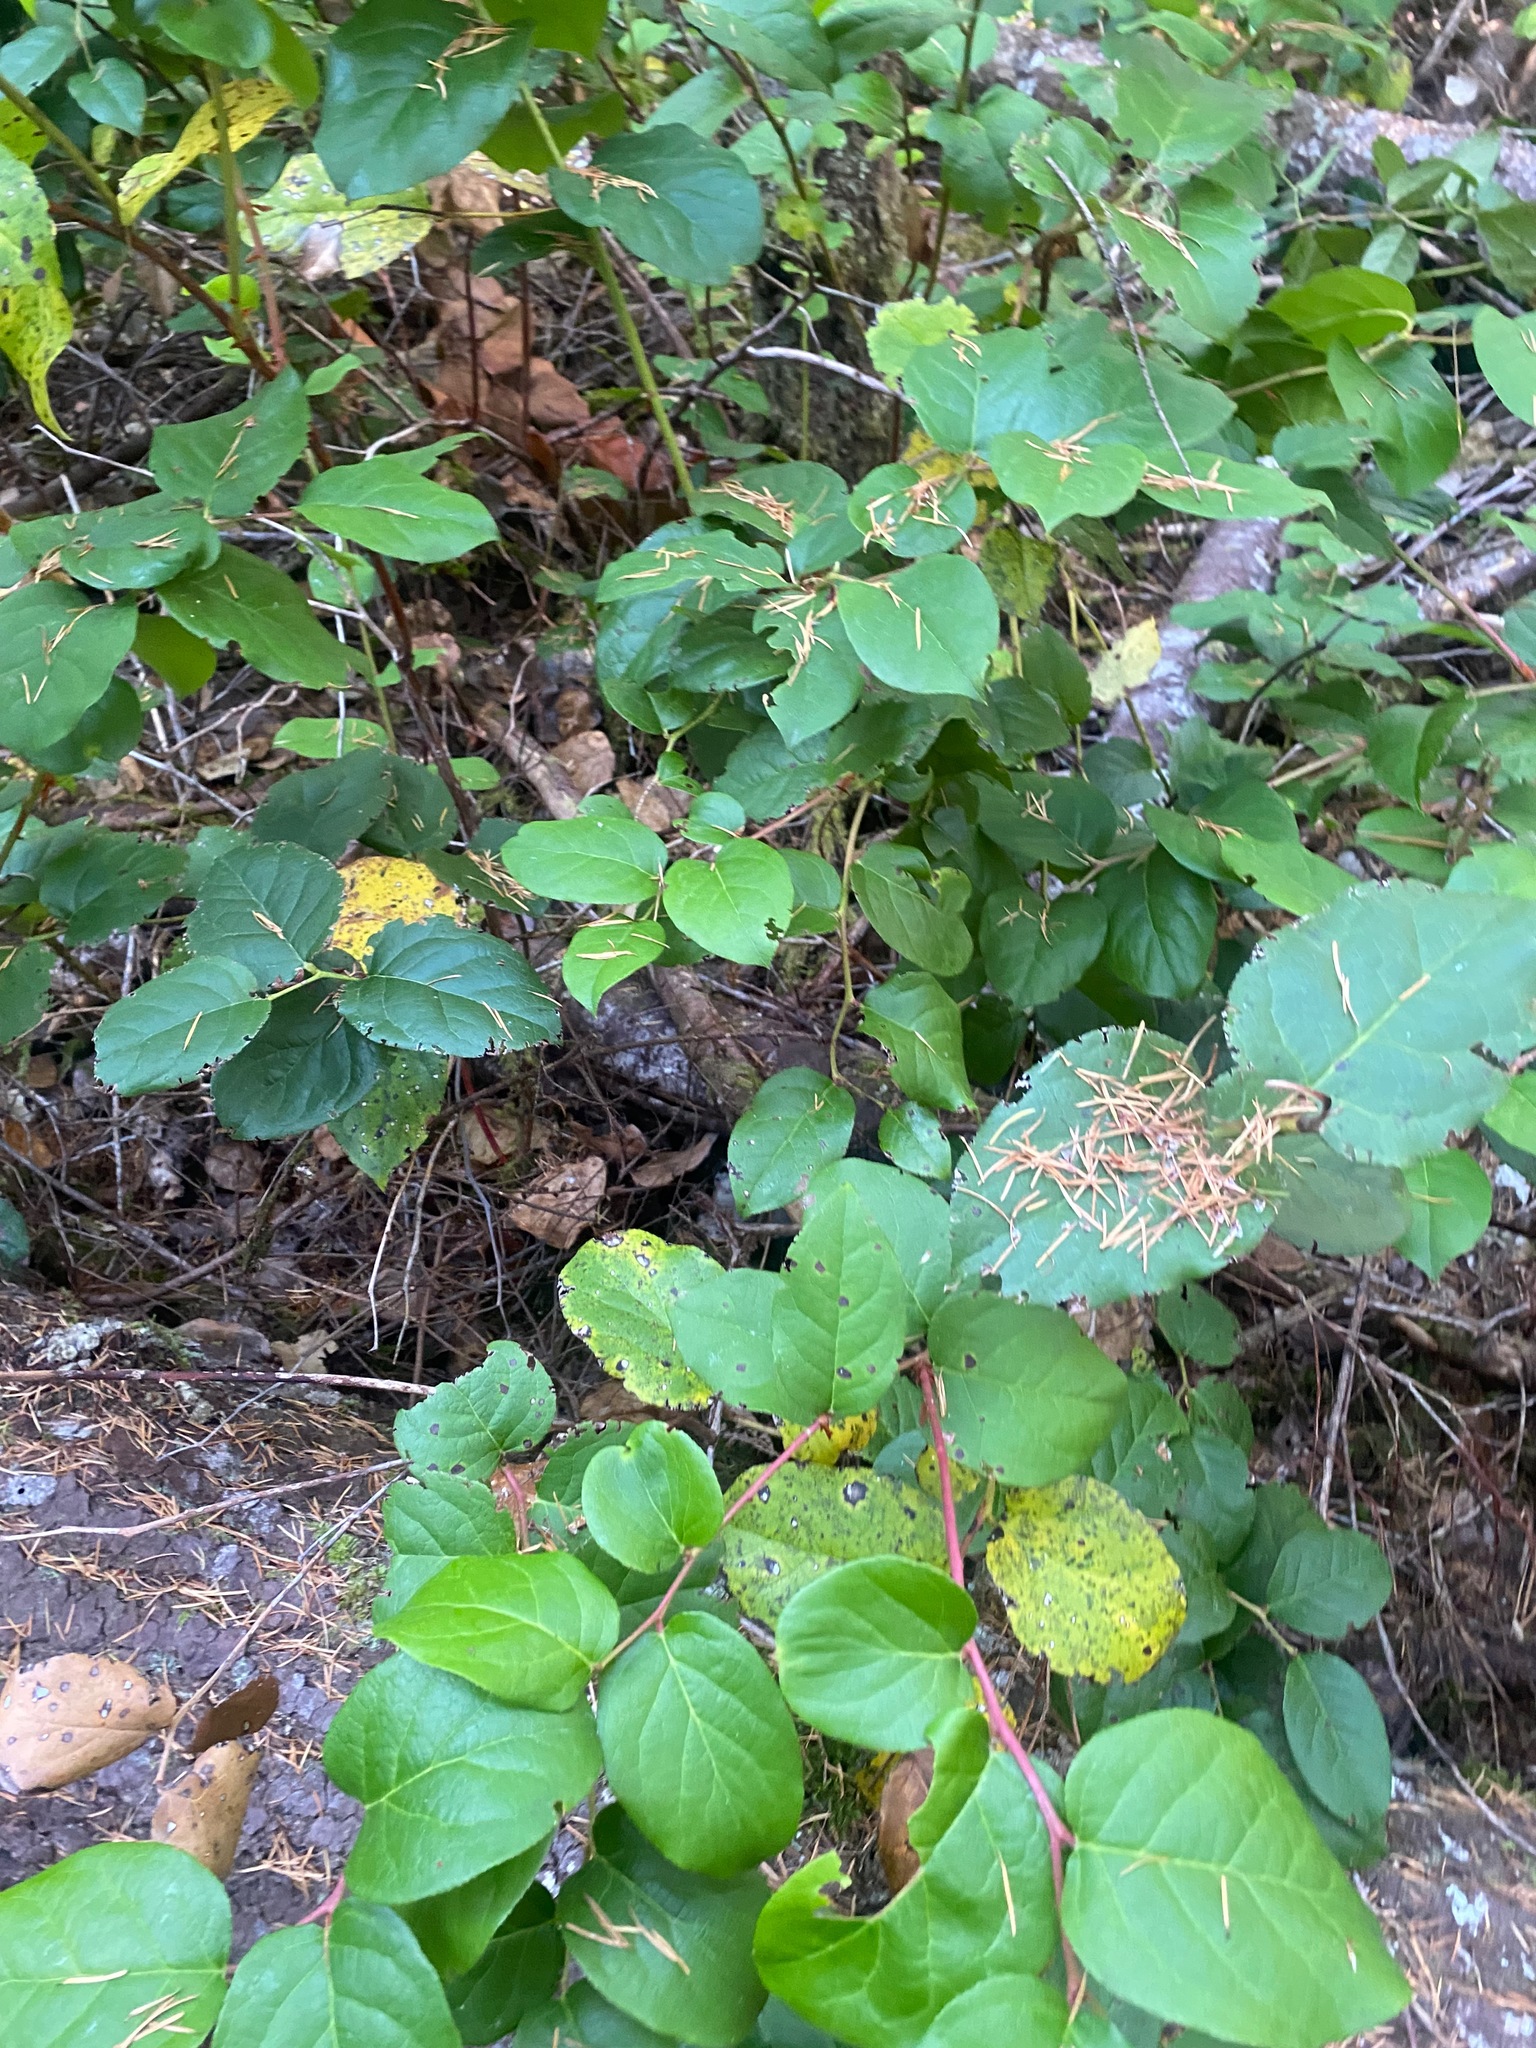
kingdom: Plantae
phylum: Tracheophyta
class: Magnoliopsida
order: Ericales
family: Ericaceae
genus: Gaultheria
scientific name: Gaultheria shallon
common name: Shallon
